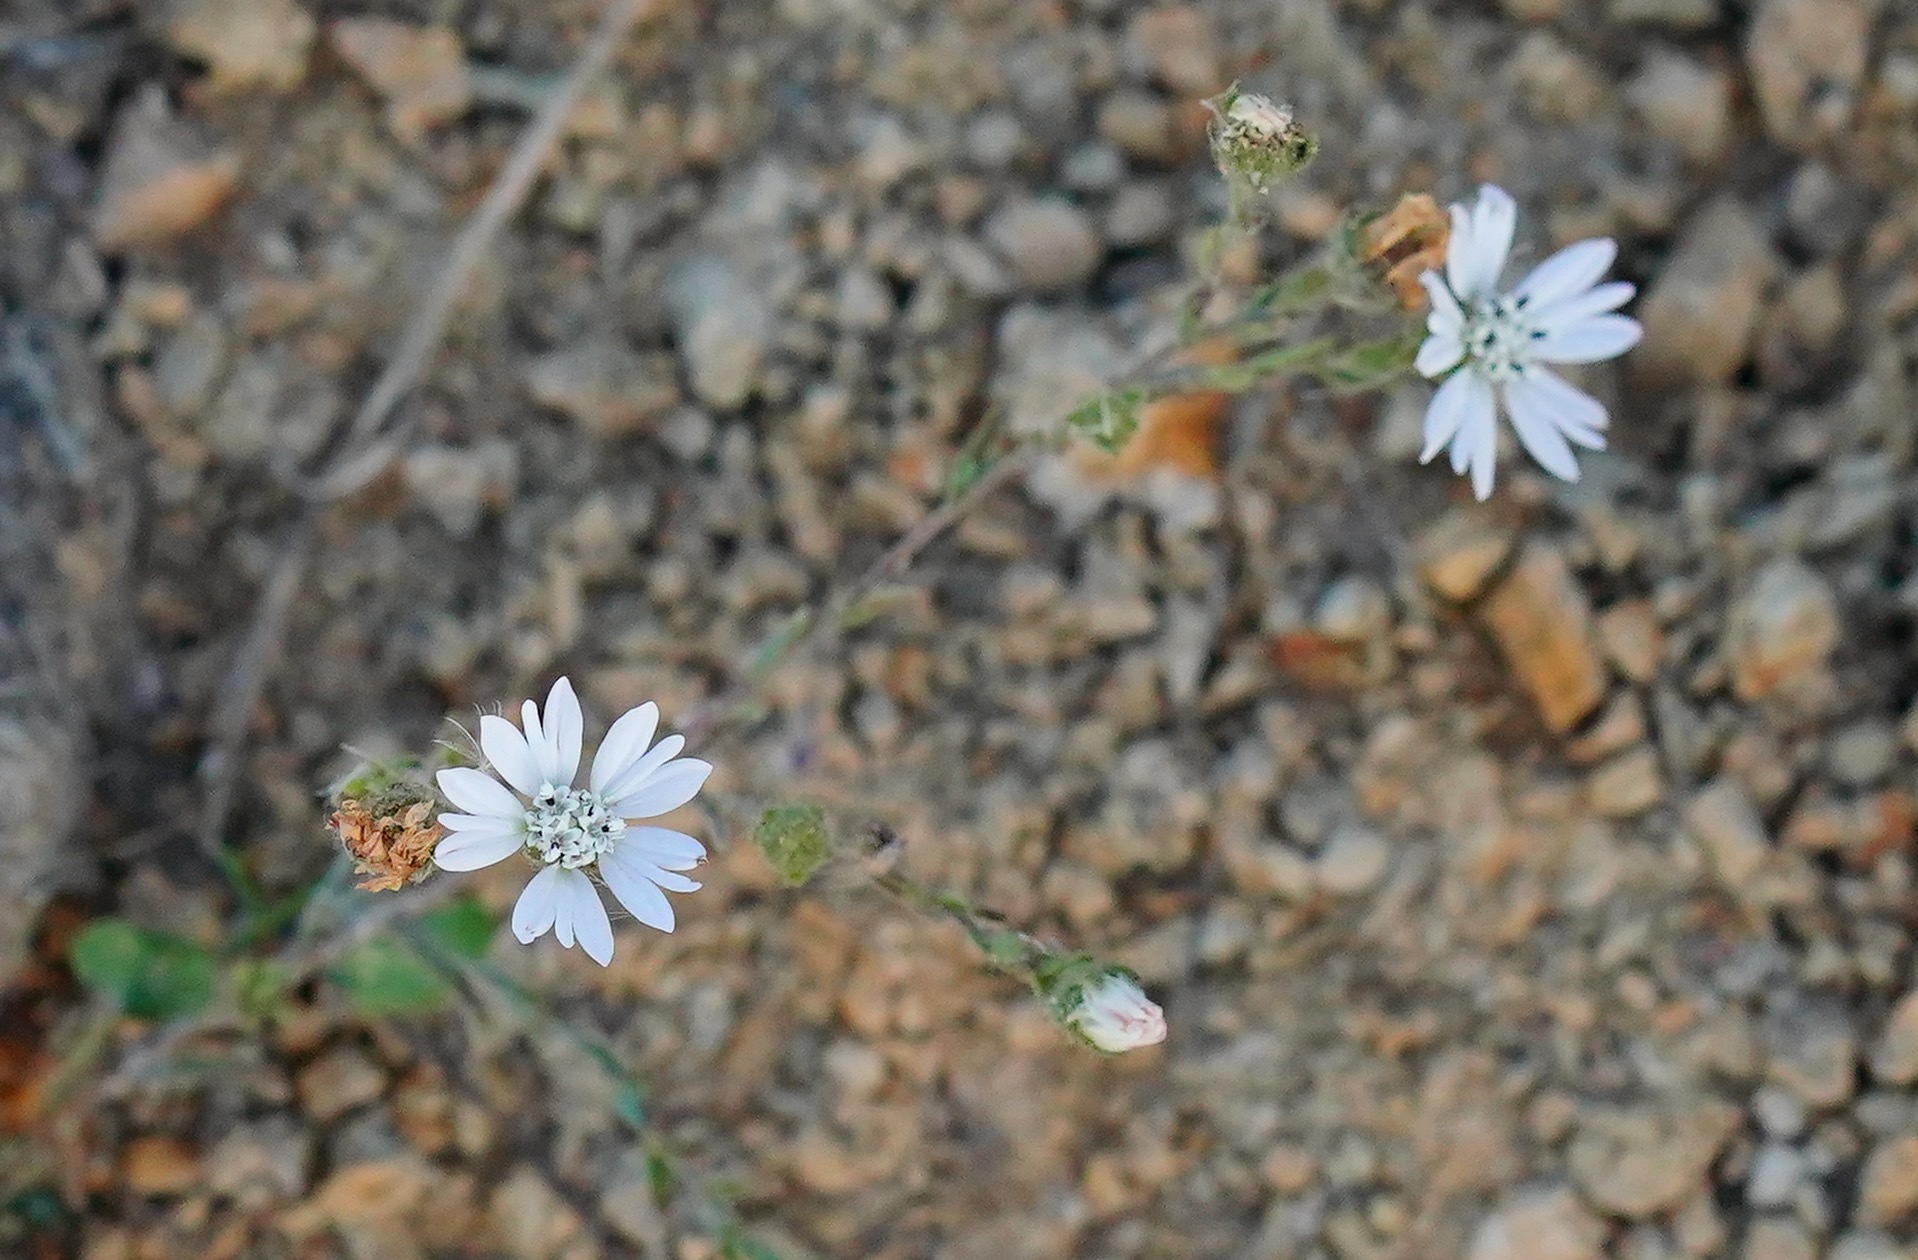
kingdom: Plantae
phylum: Tracheophyta
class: Magnoliopsida
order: Asterales
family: Asteraceae
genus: Hemizonia
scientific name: Hemizonia congesta
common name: Hayfield tarweed
